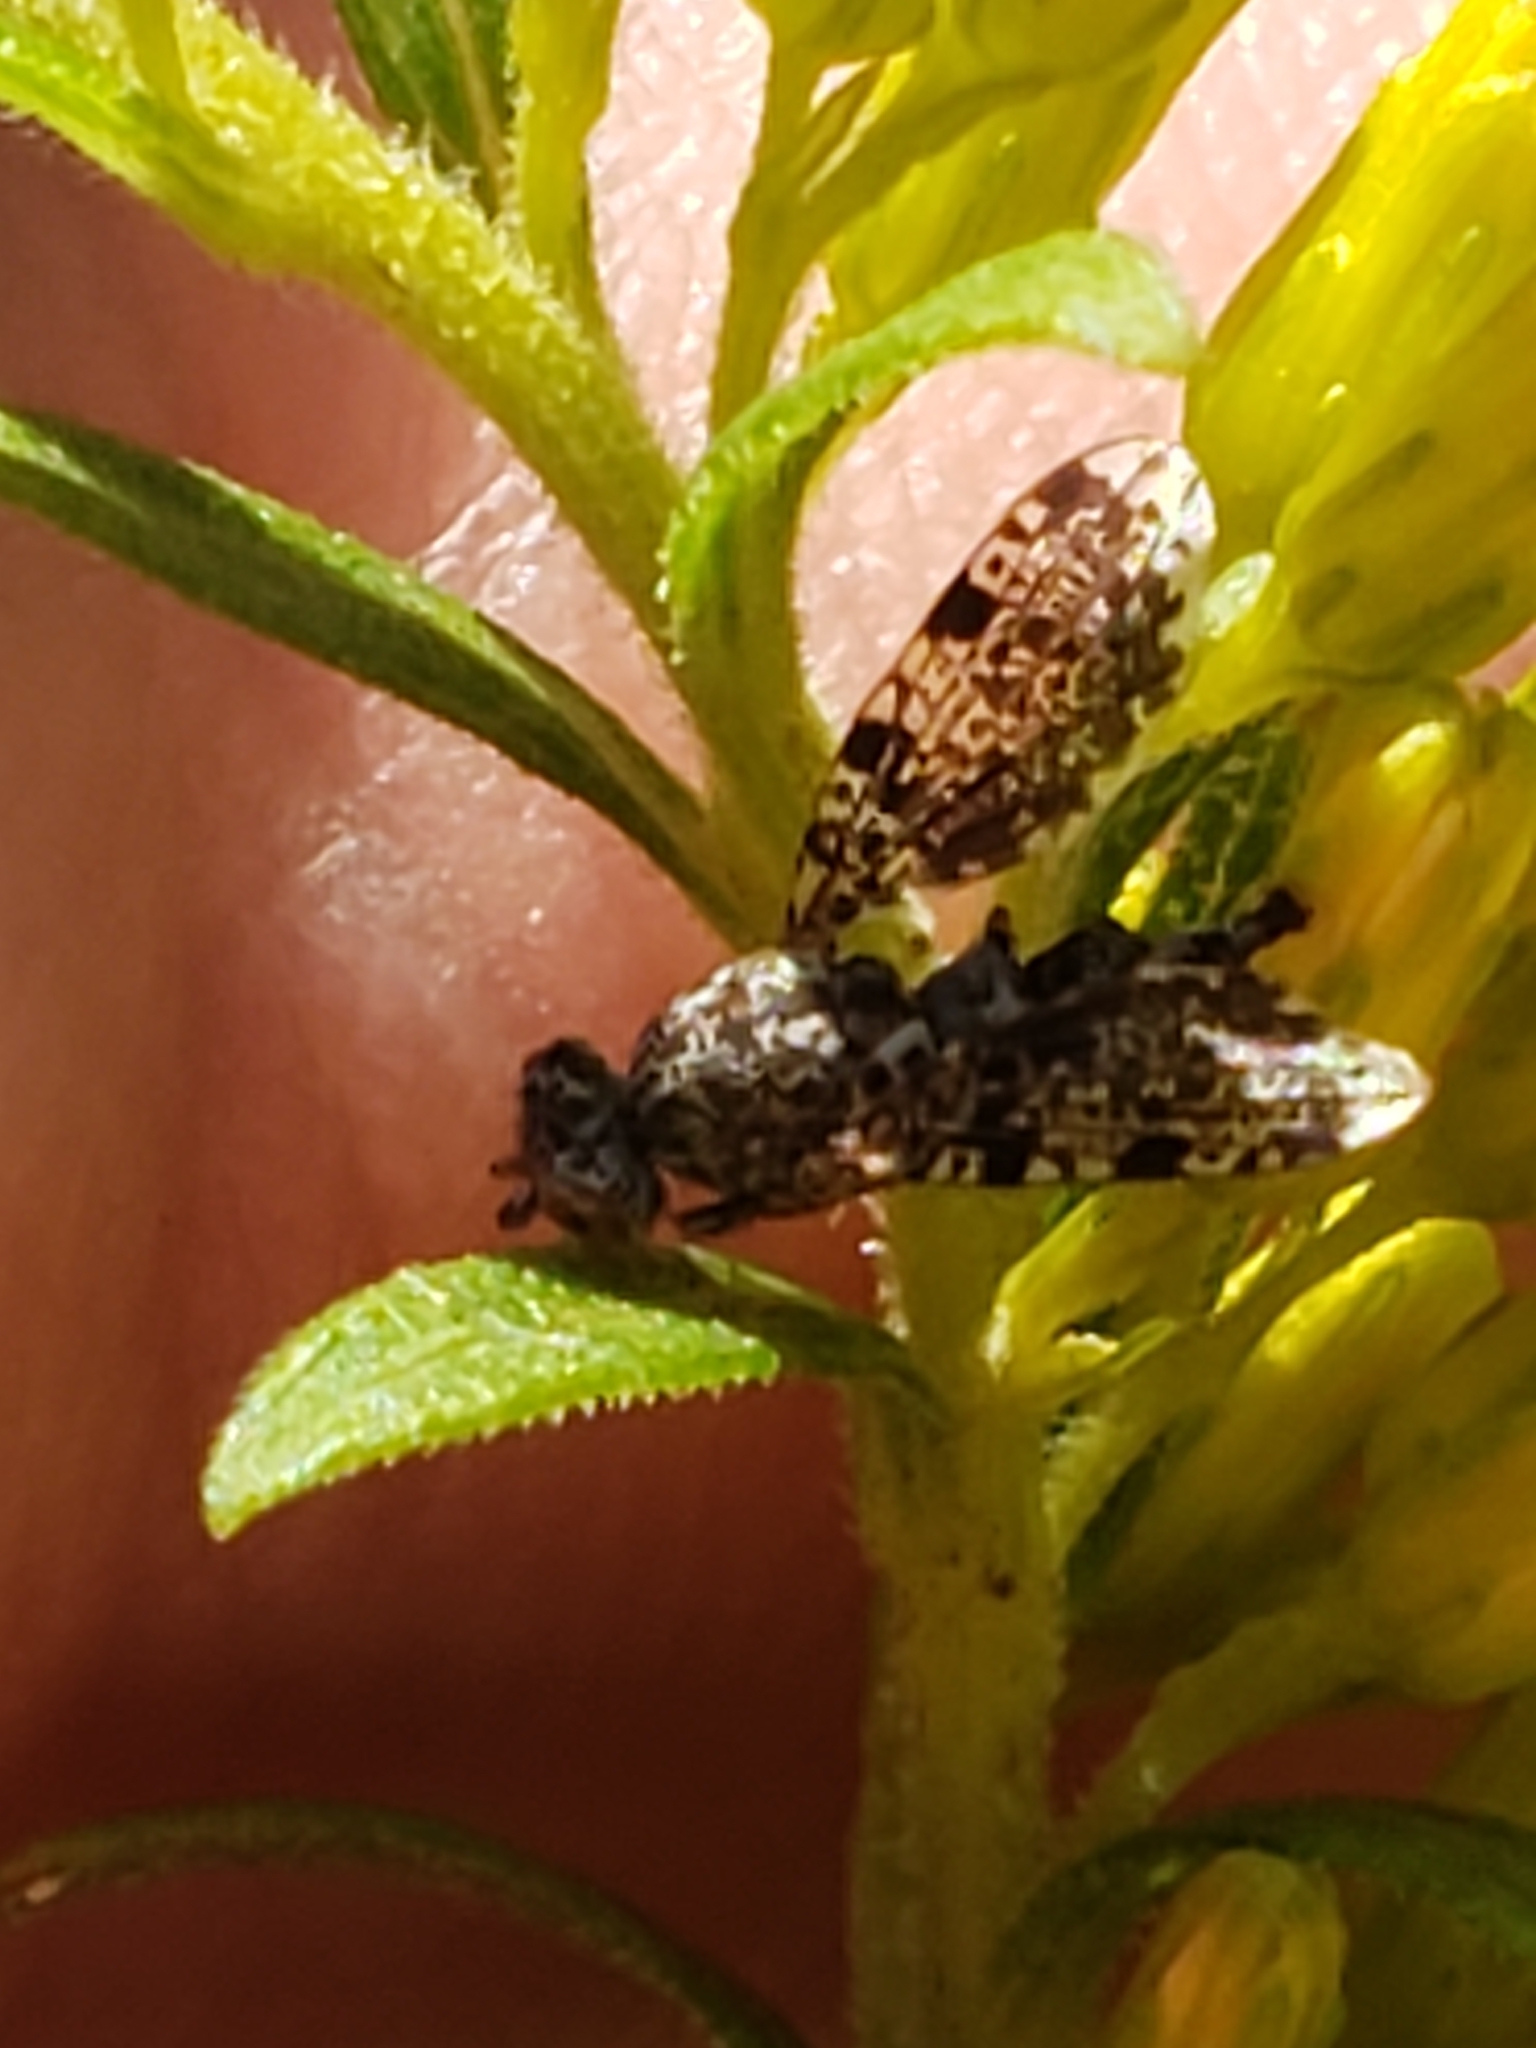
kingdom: Animalia
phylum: Arthropoda
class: Insecta
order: Diptera
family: Ulidiidae
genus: Callopistromyia
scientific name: Callopistromyia annulipes
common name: Peacock fly
